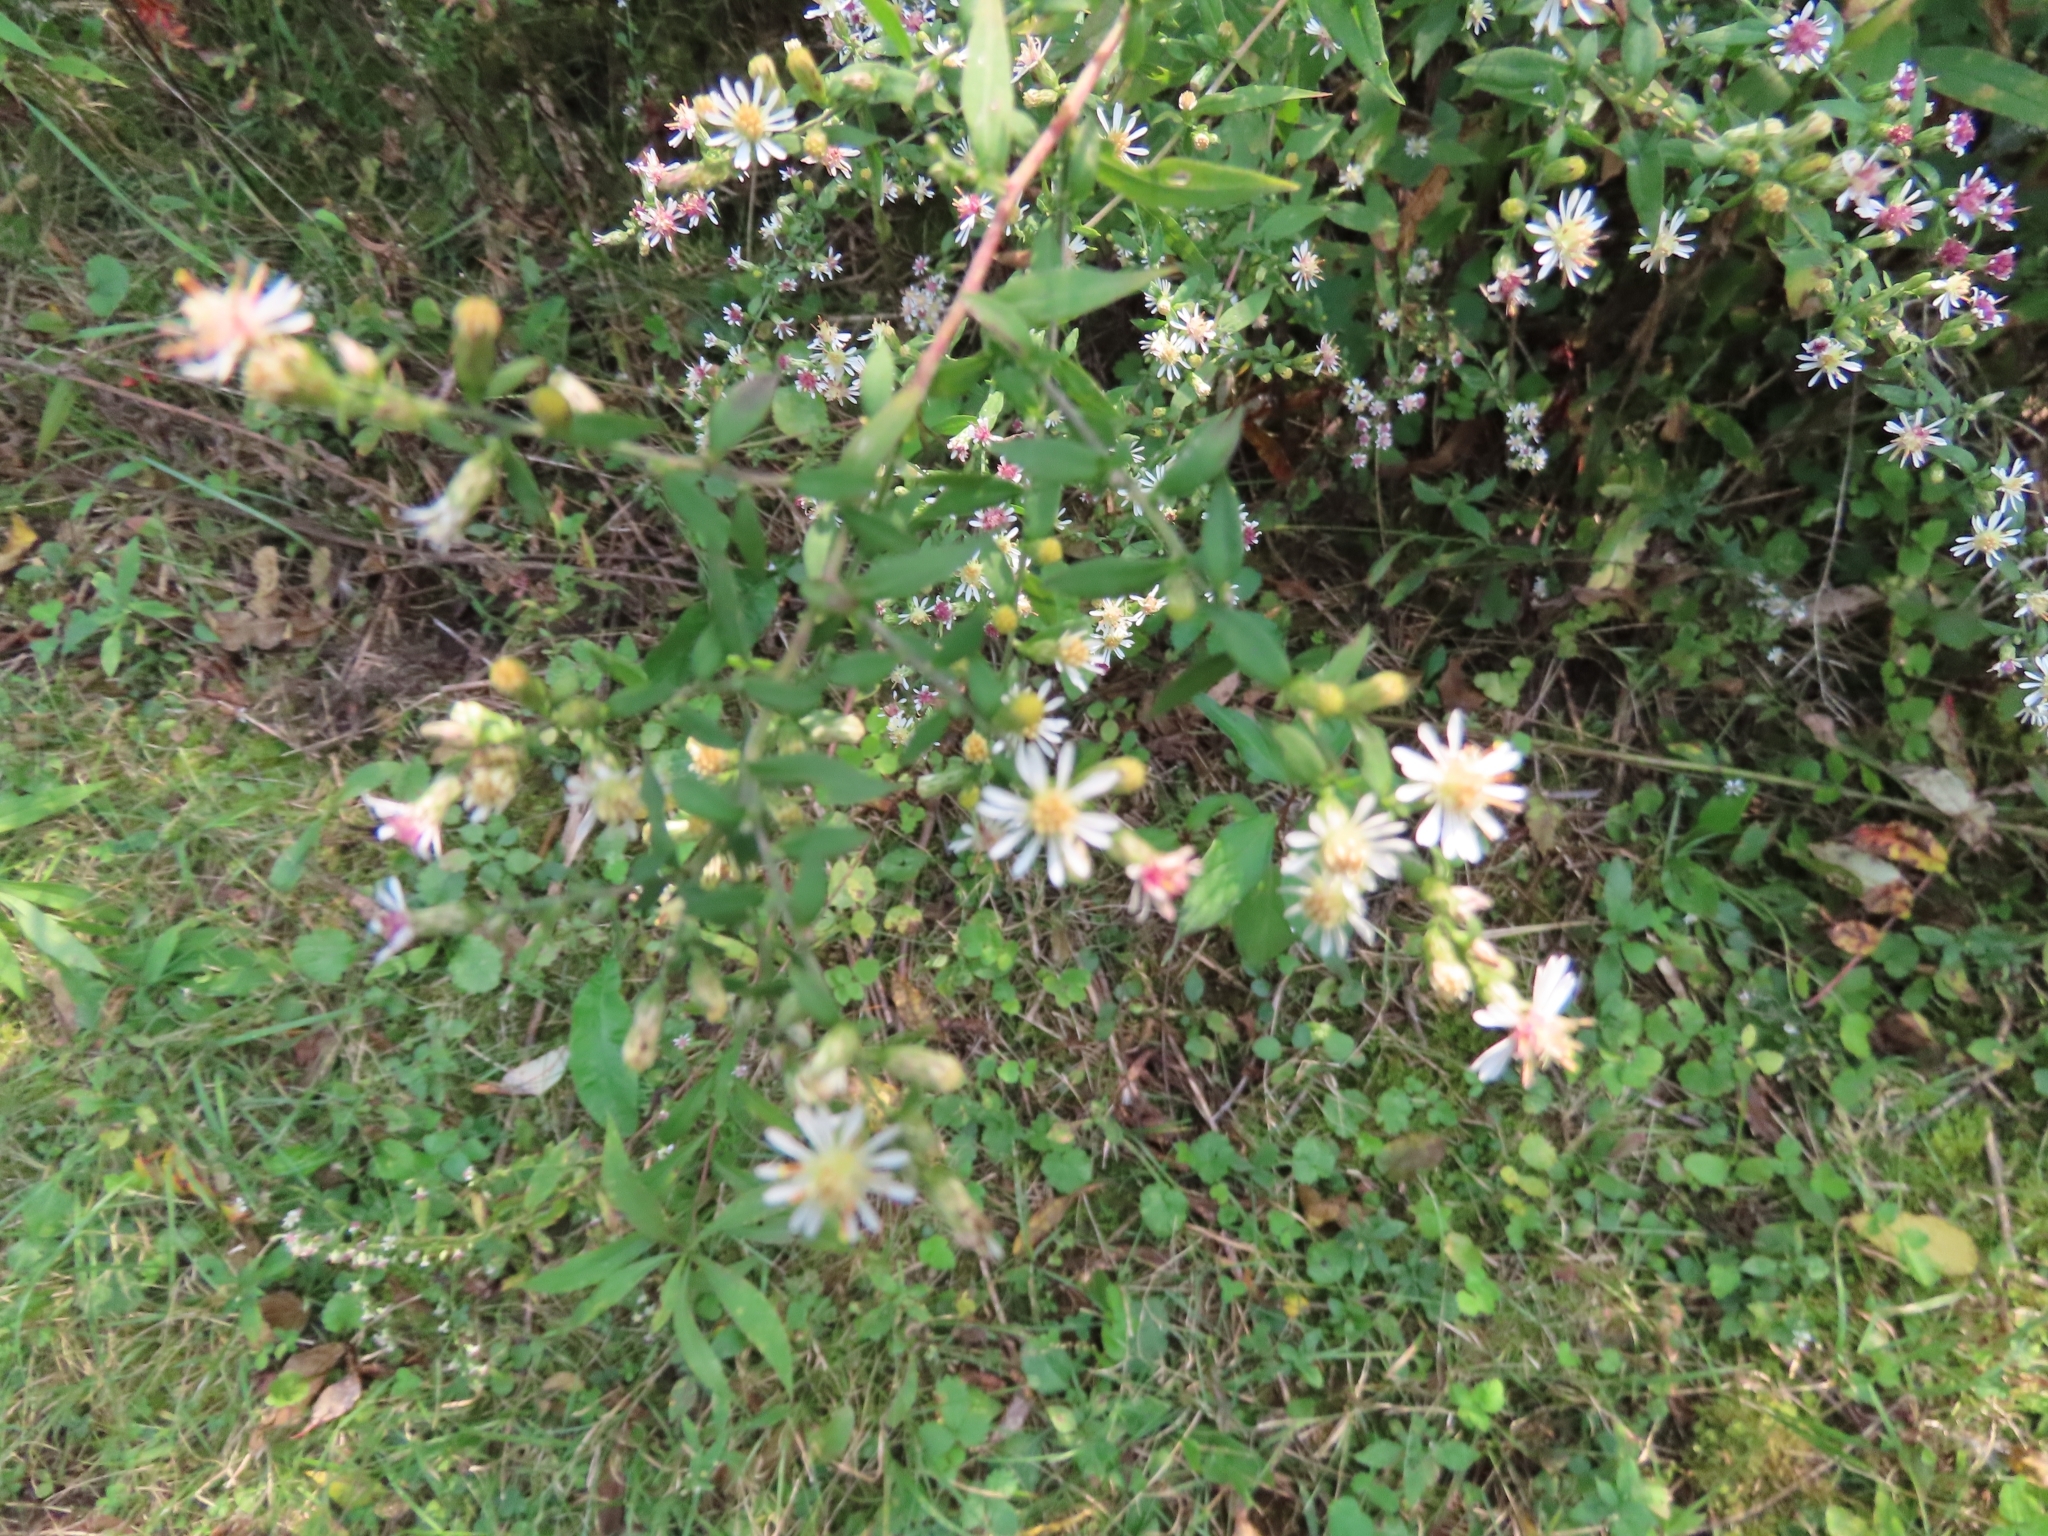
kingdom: Plantae
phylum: Tracheophyta
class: Magnoliopsida
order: Asterales
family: Asteraceae
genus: Symphyotrichum
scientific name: Symphyotrichum lateriflorum
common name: Calico aster
